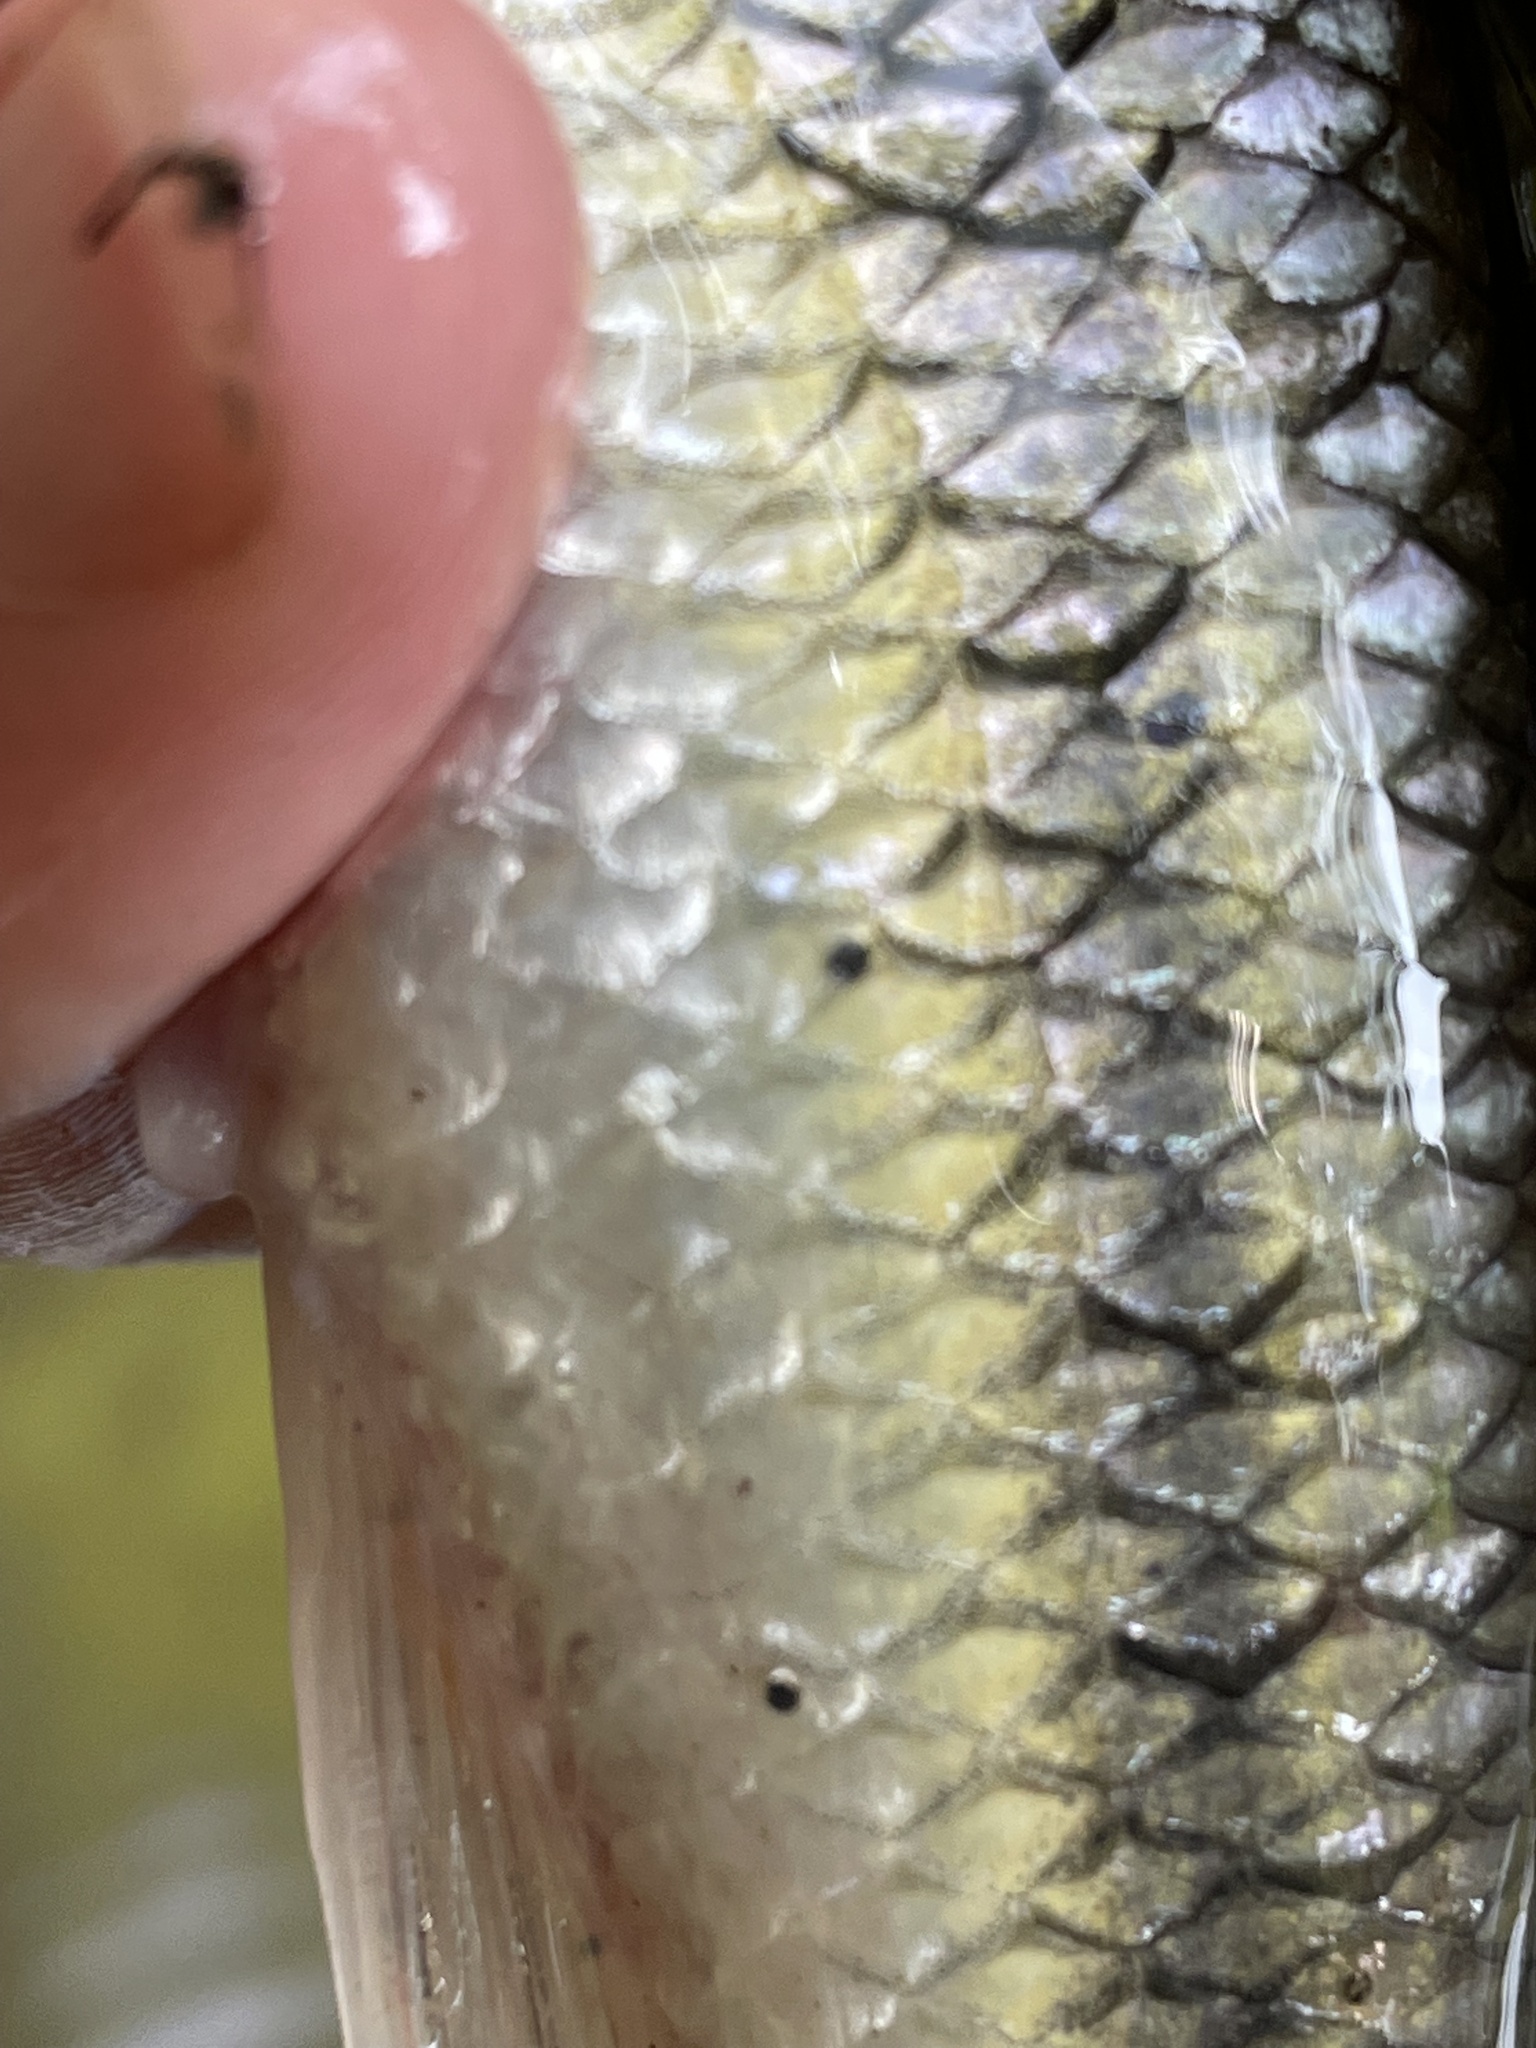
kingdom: Animalia
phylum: Platyhelminthes
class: Trematoda
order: Diplostomida
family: Diplostomidae
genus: Neascus
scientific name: Neascus
